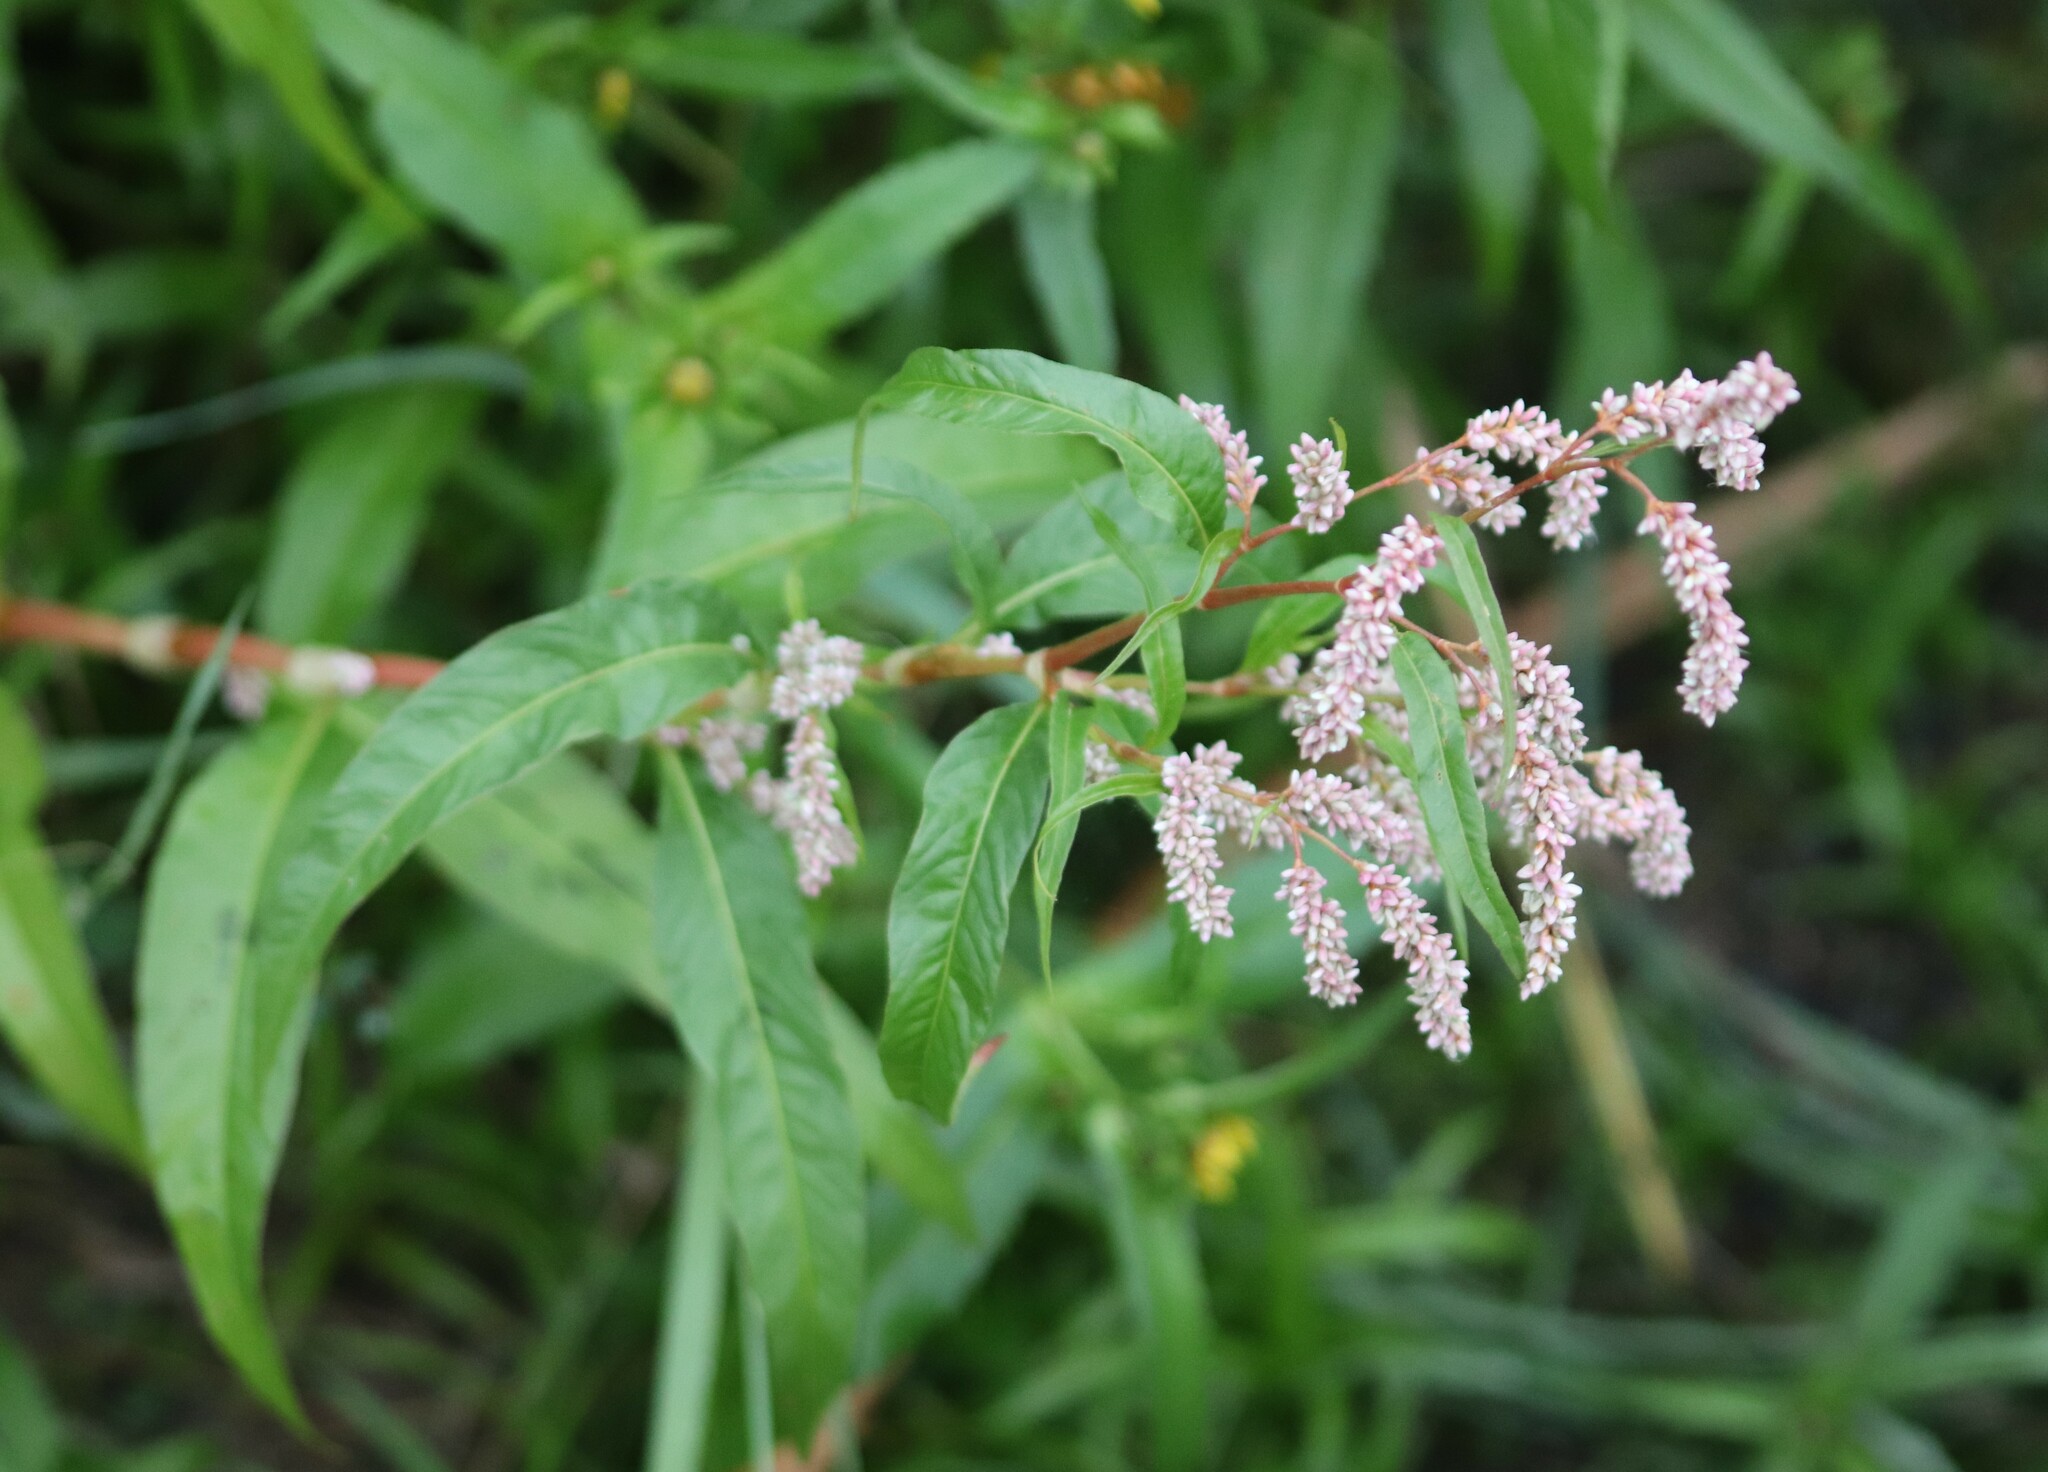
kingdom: Plantae
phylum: Tracheophyta
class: Magnoliopsida
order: Caryophyllales
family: Polygonaceae
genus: Persicaria
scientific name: Persicaria maculosa
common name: Redshank
